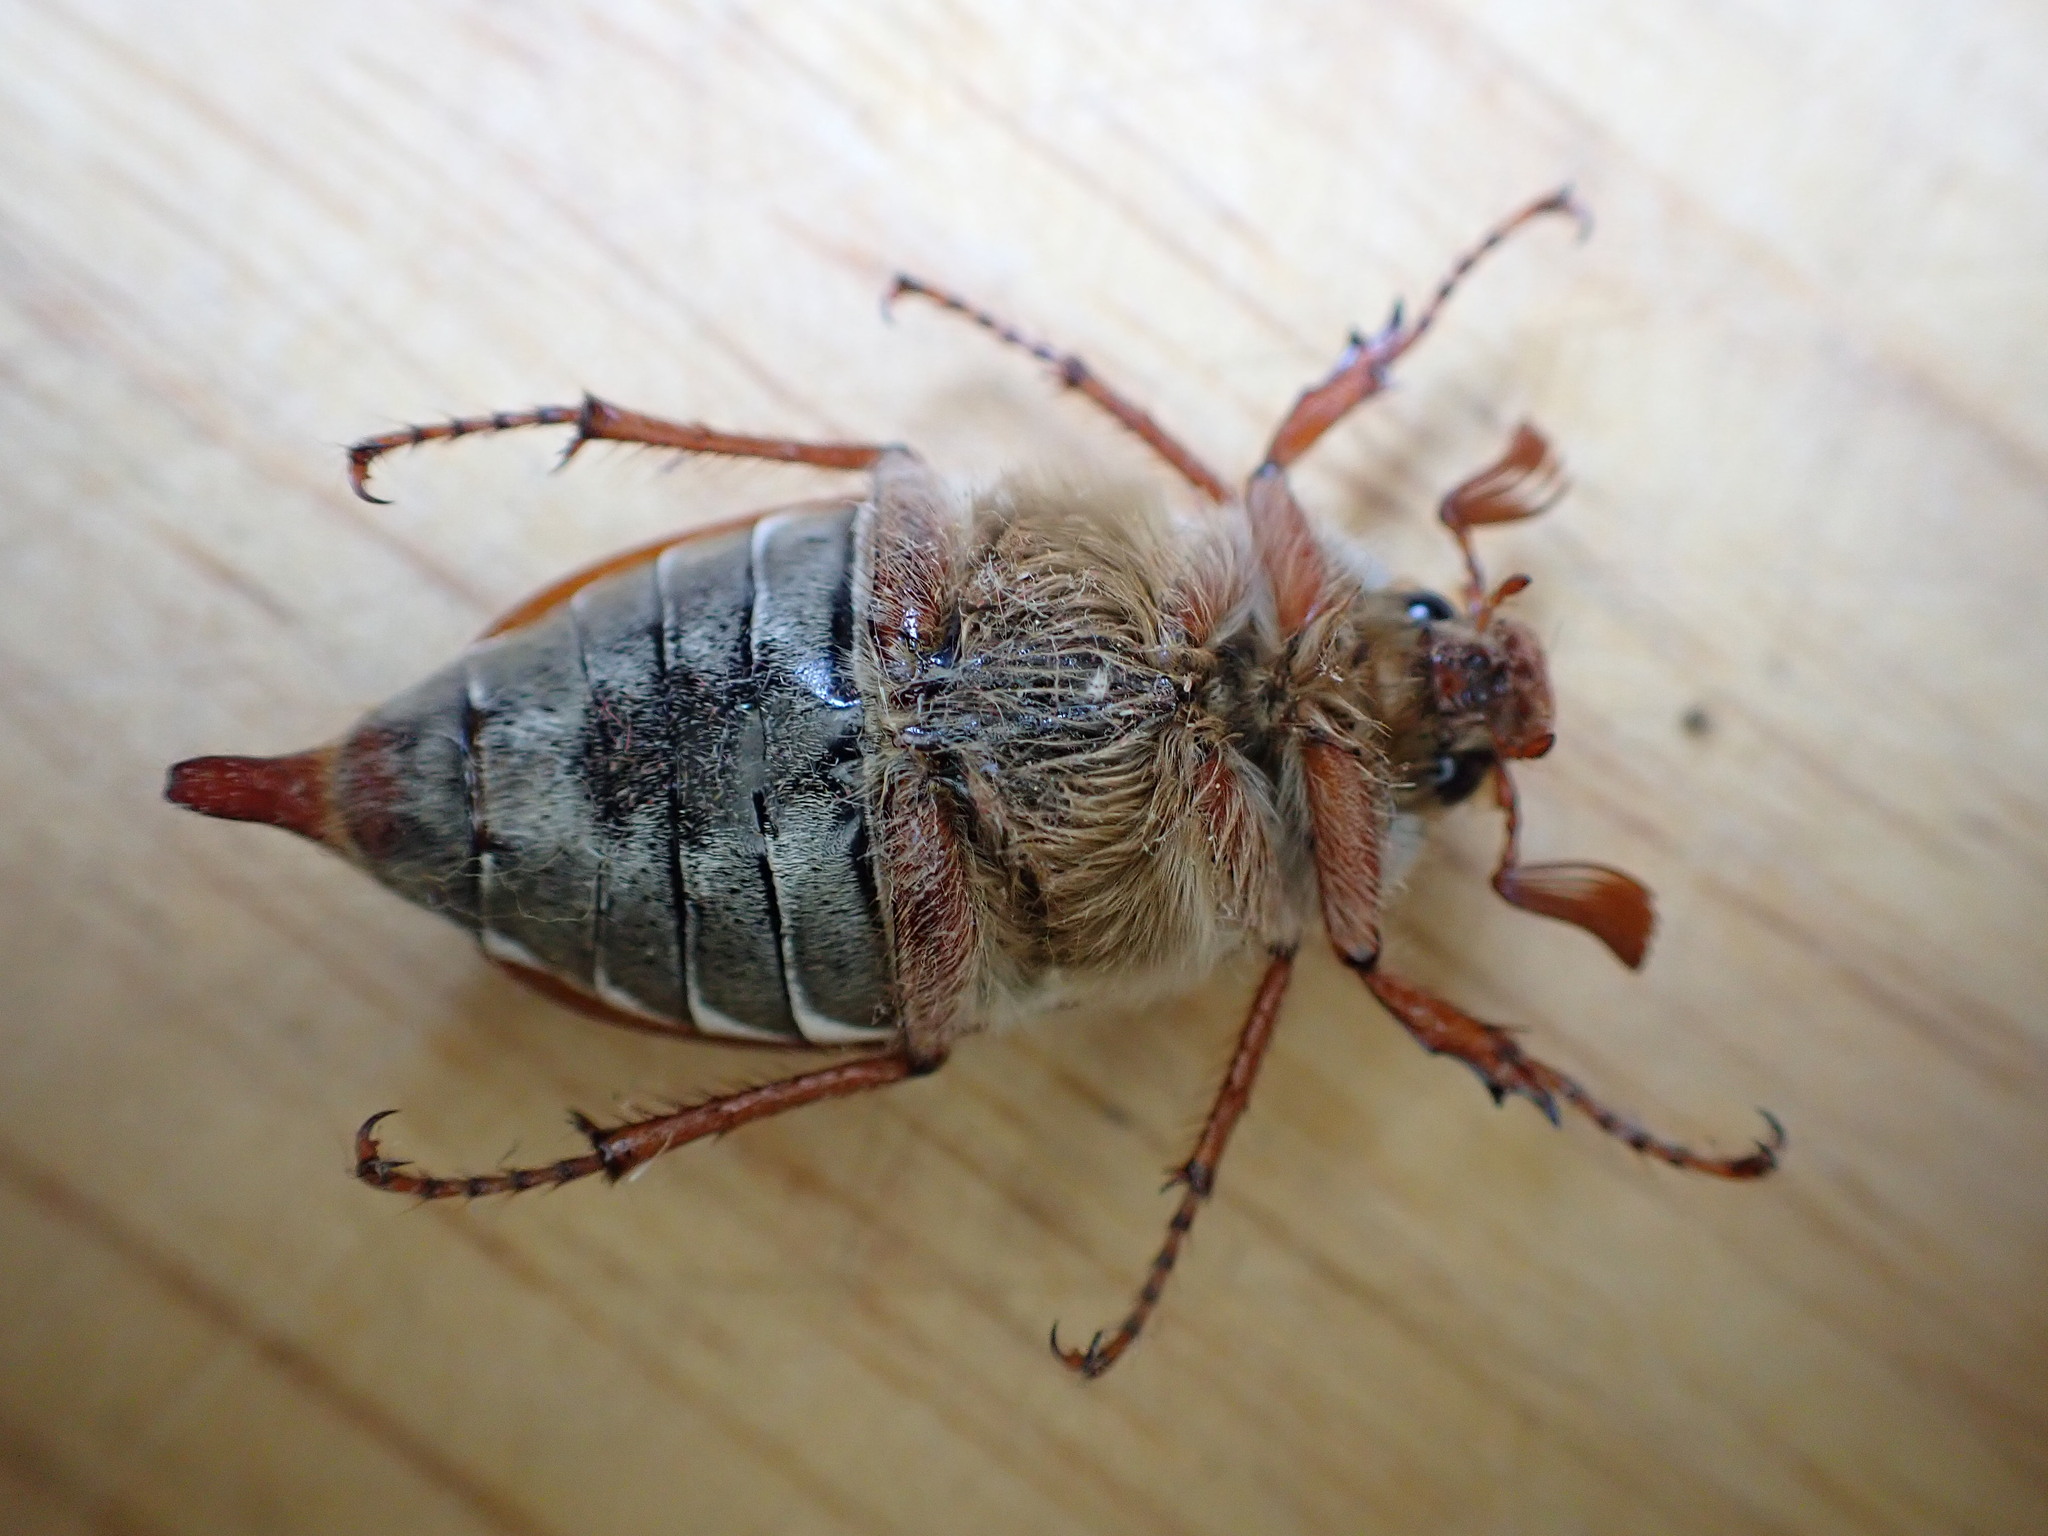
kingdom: Animalia
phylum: Arthropoda
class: Insecta
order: Coleoptera
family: Scarabaeidae
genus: Melolontha
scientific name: Melolontha melolontha
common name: Cockchafer maybeetle
